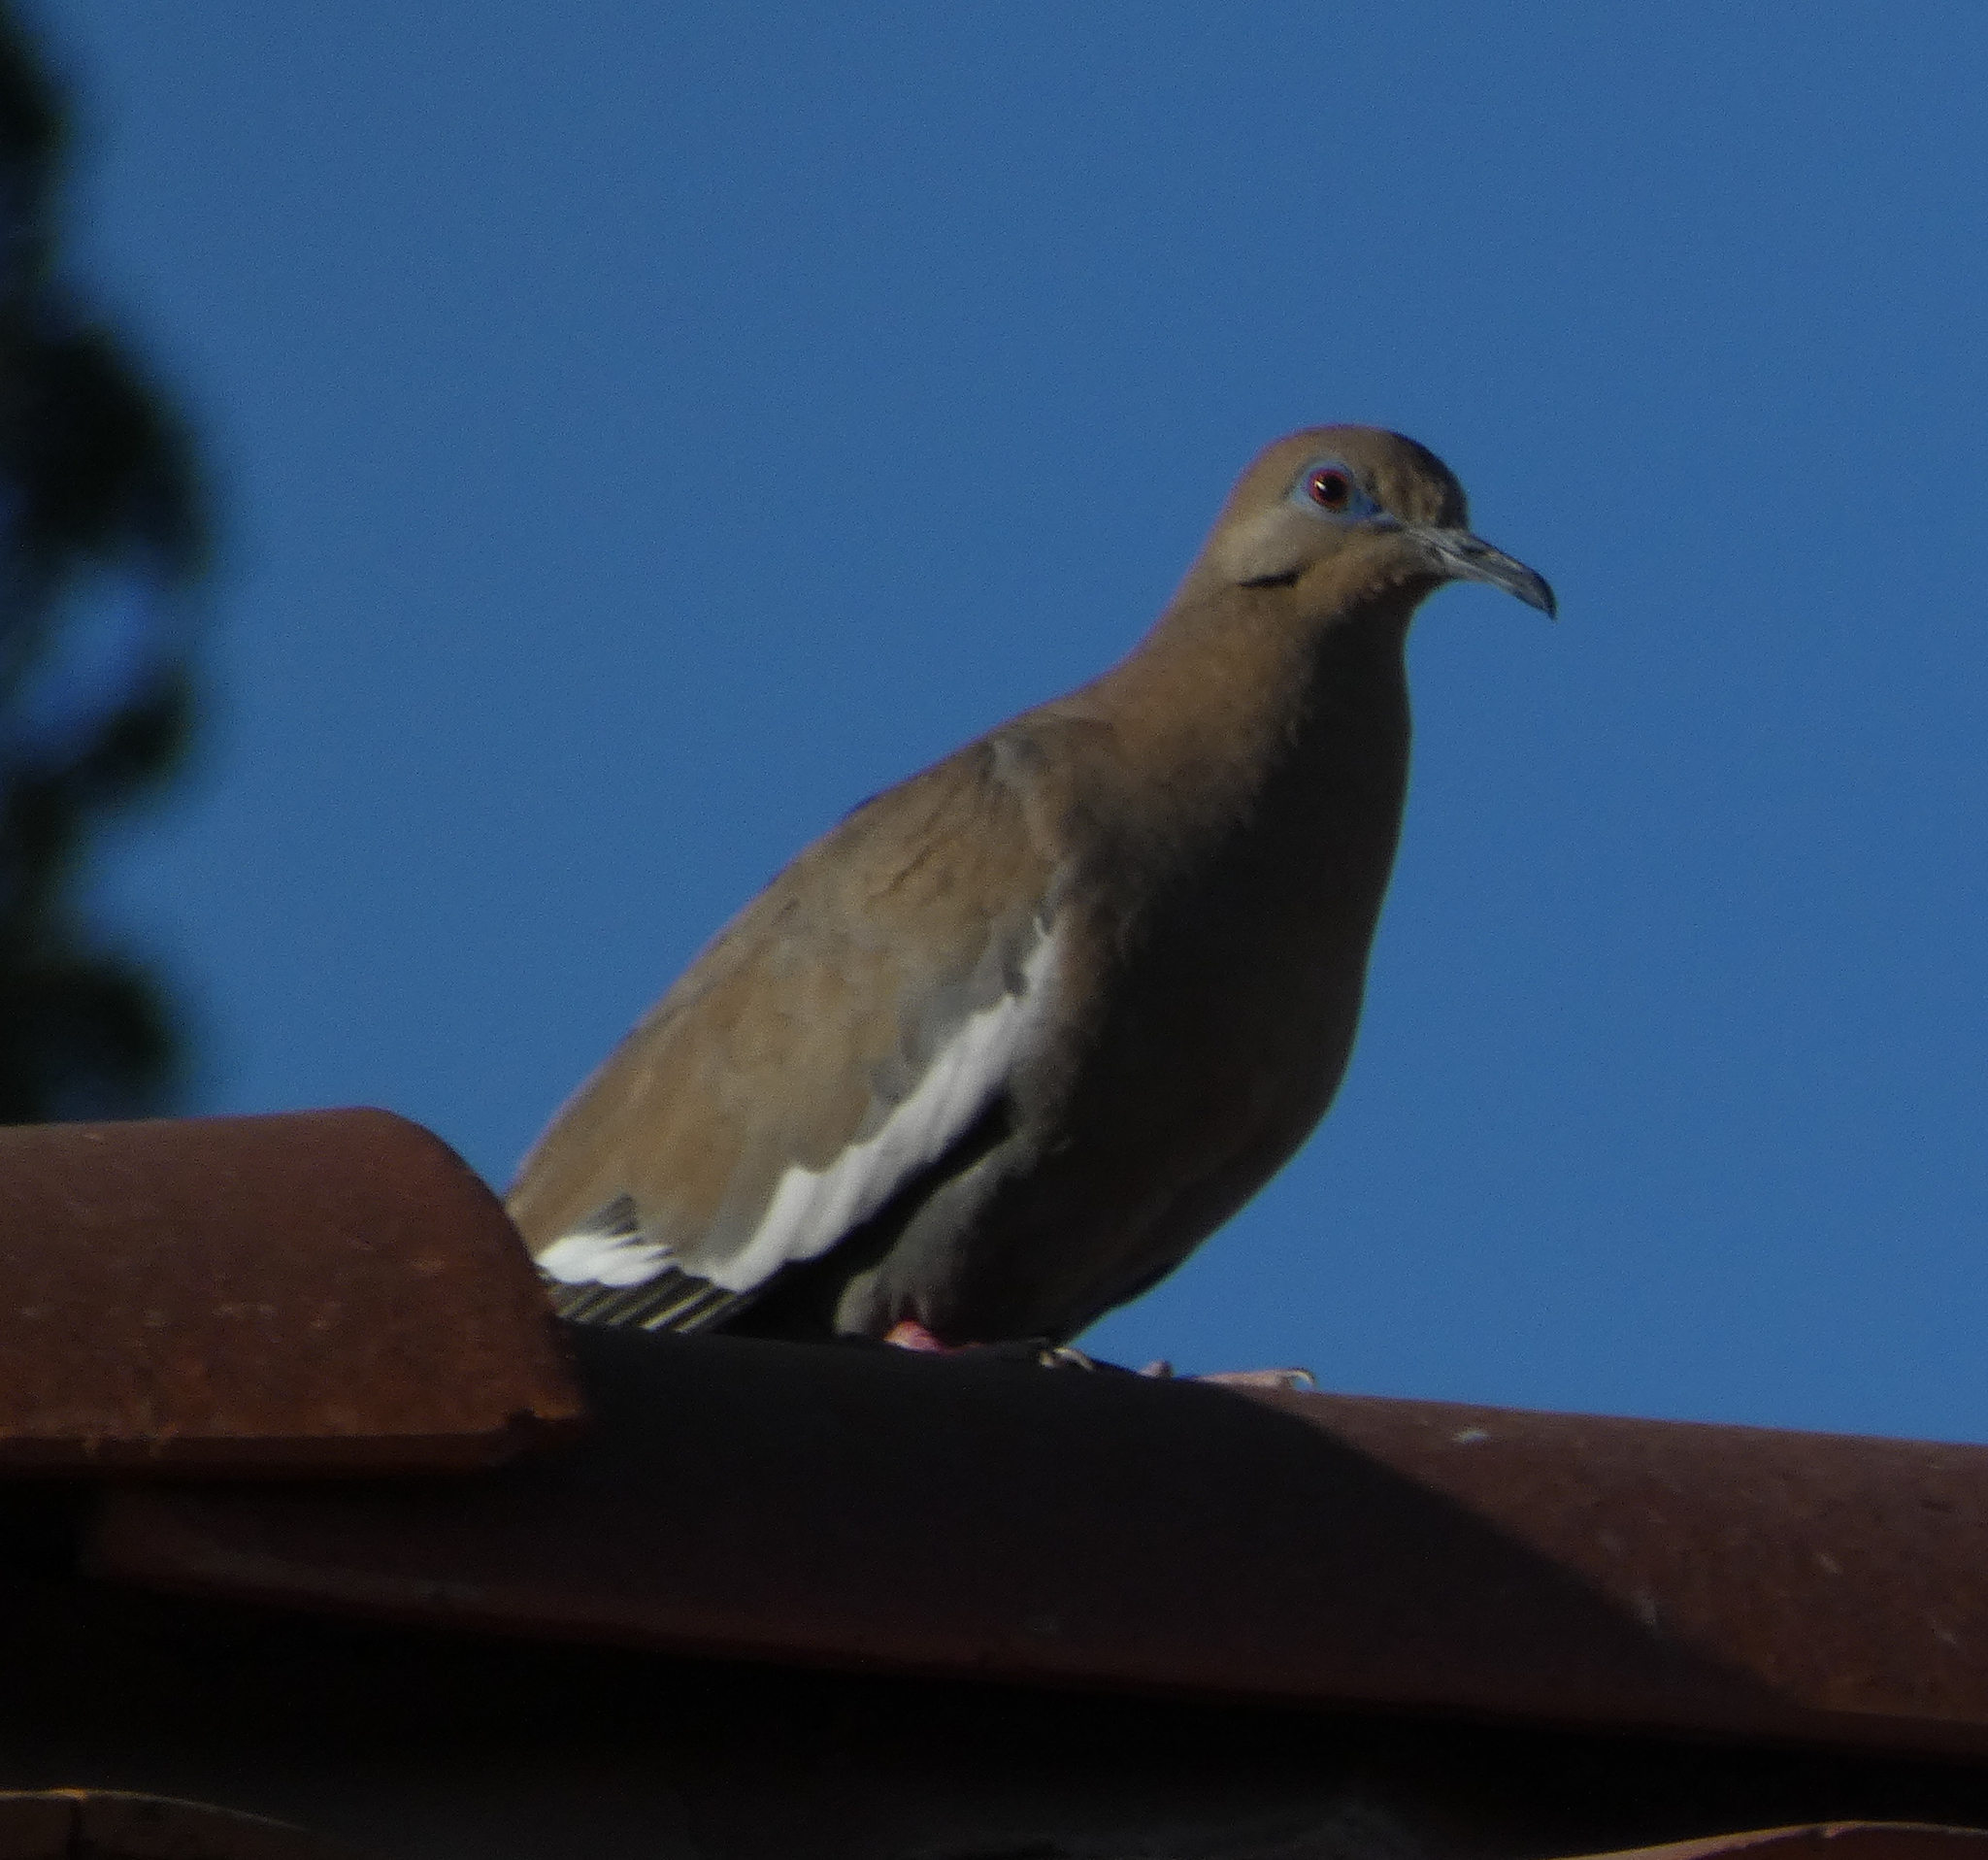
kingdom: Animalia
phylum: Chordata
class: Aves
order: Columbiformes
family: Columbidae
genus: Zenaida
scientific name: Zenaida asiatica
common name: White-winged dove
